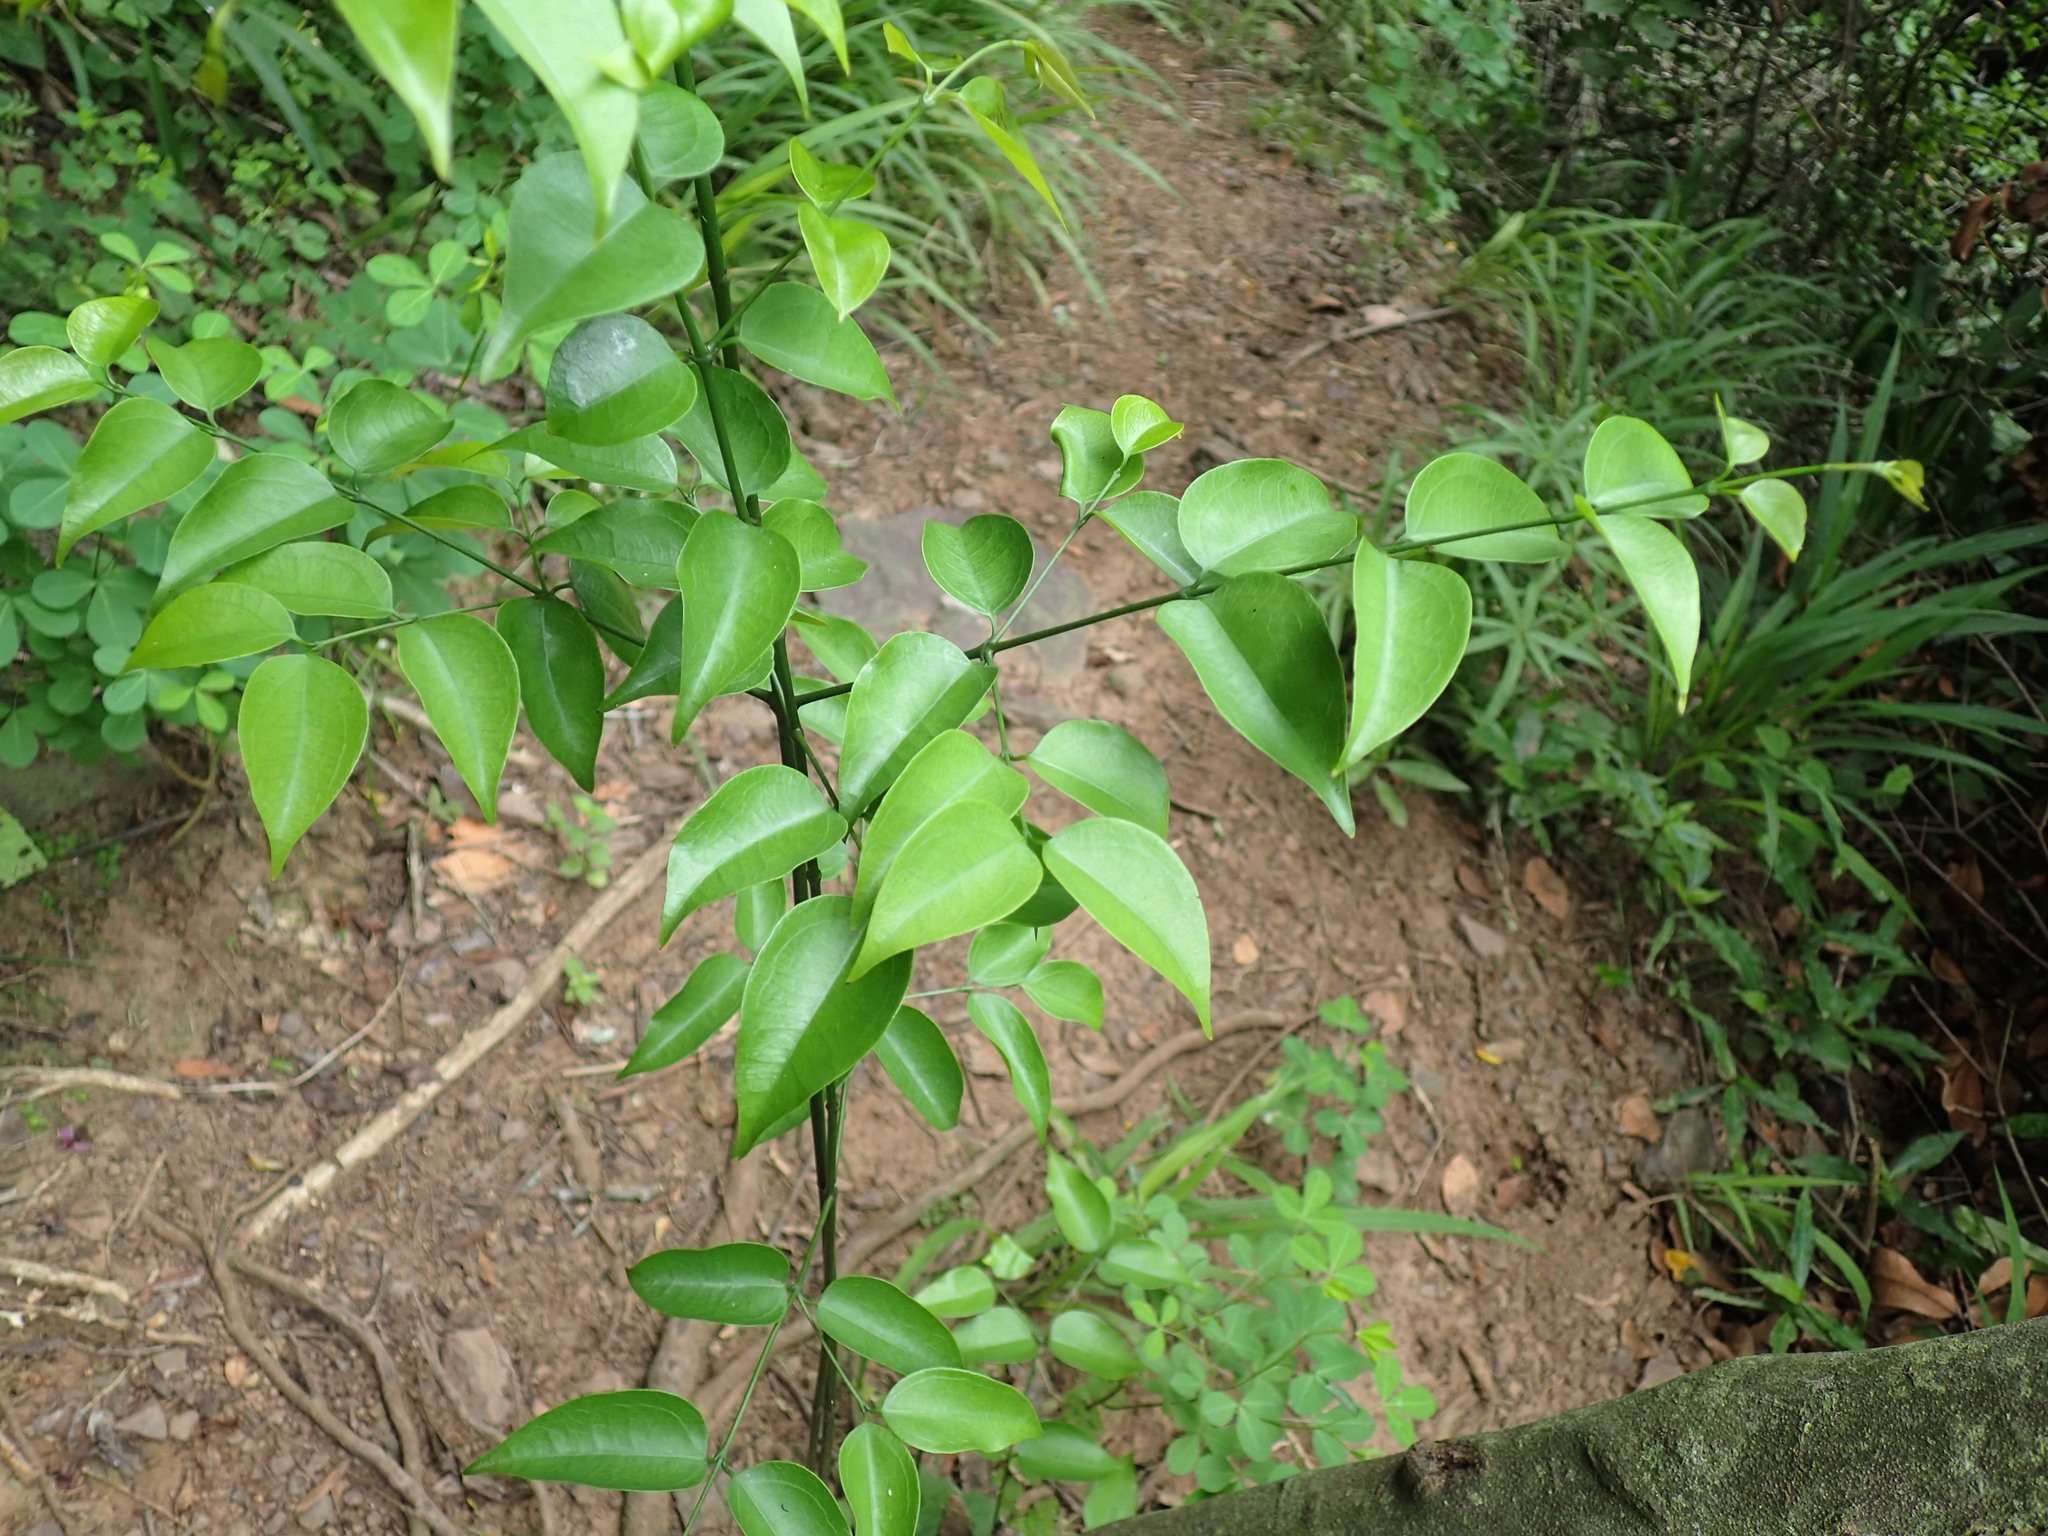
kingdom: Plantae
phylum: Tracheophyta
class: Magnoliopsida
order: Gentianales
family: Loganiaceae
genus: Strychnos
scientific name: Strychnos usambarensis
